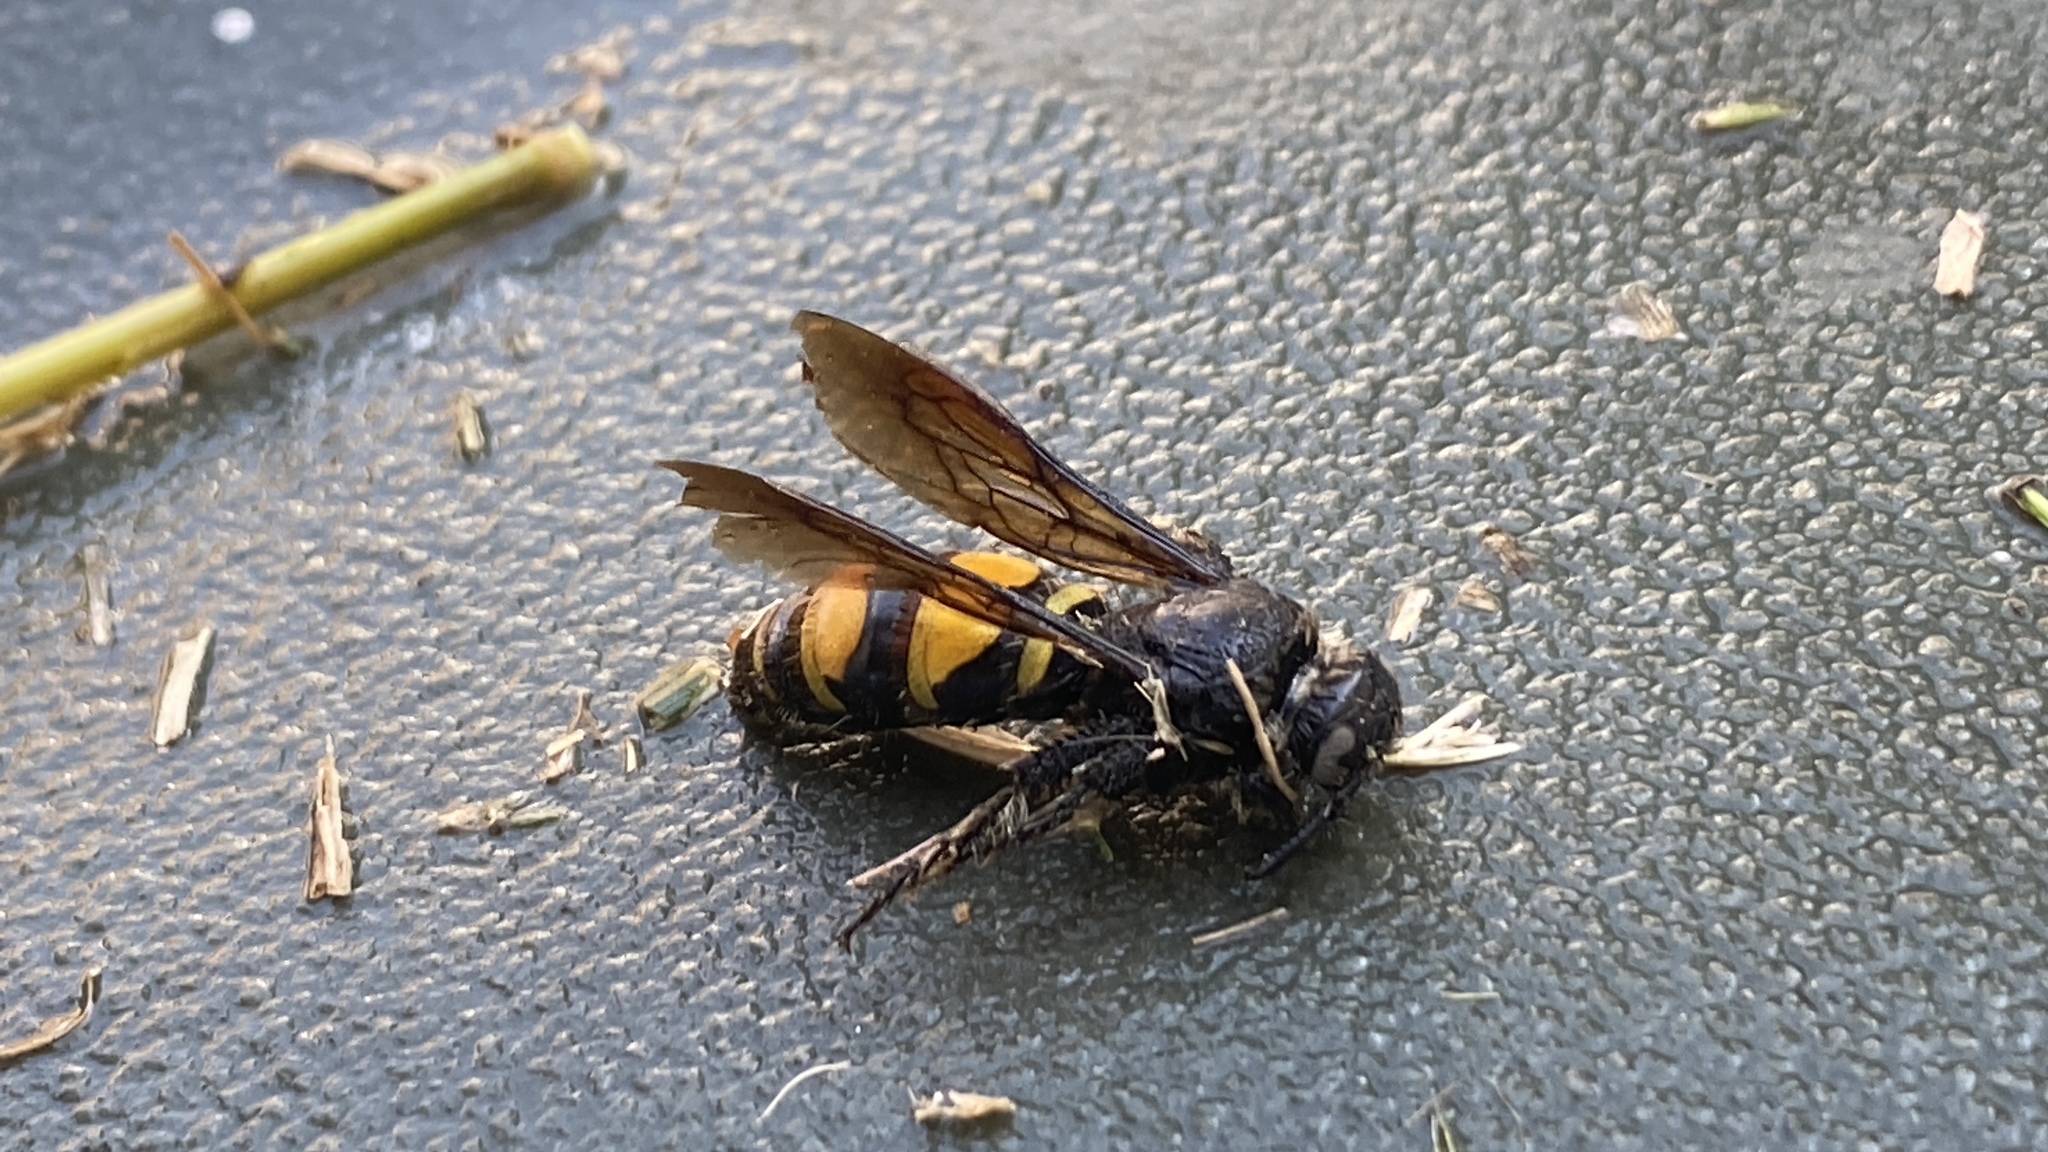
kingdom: Animalia
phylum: Arthropoda
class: Insecta
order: Hymenoptera
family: Scoliidae
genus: Dielis
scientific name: Dielis tolteca
